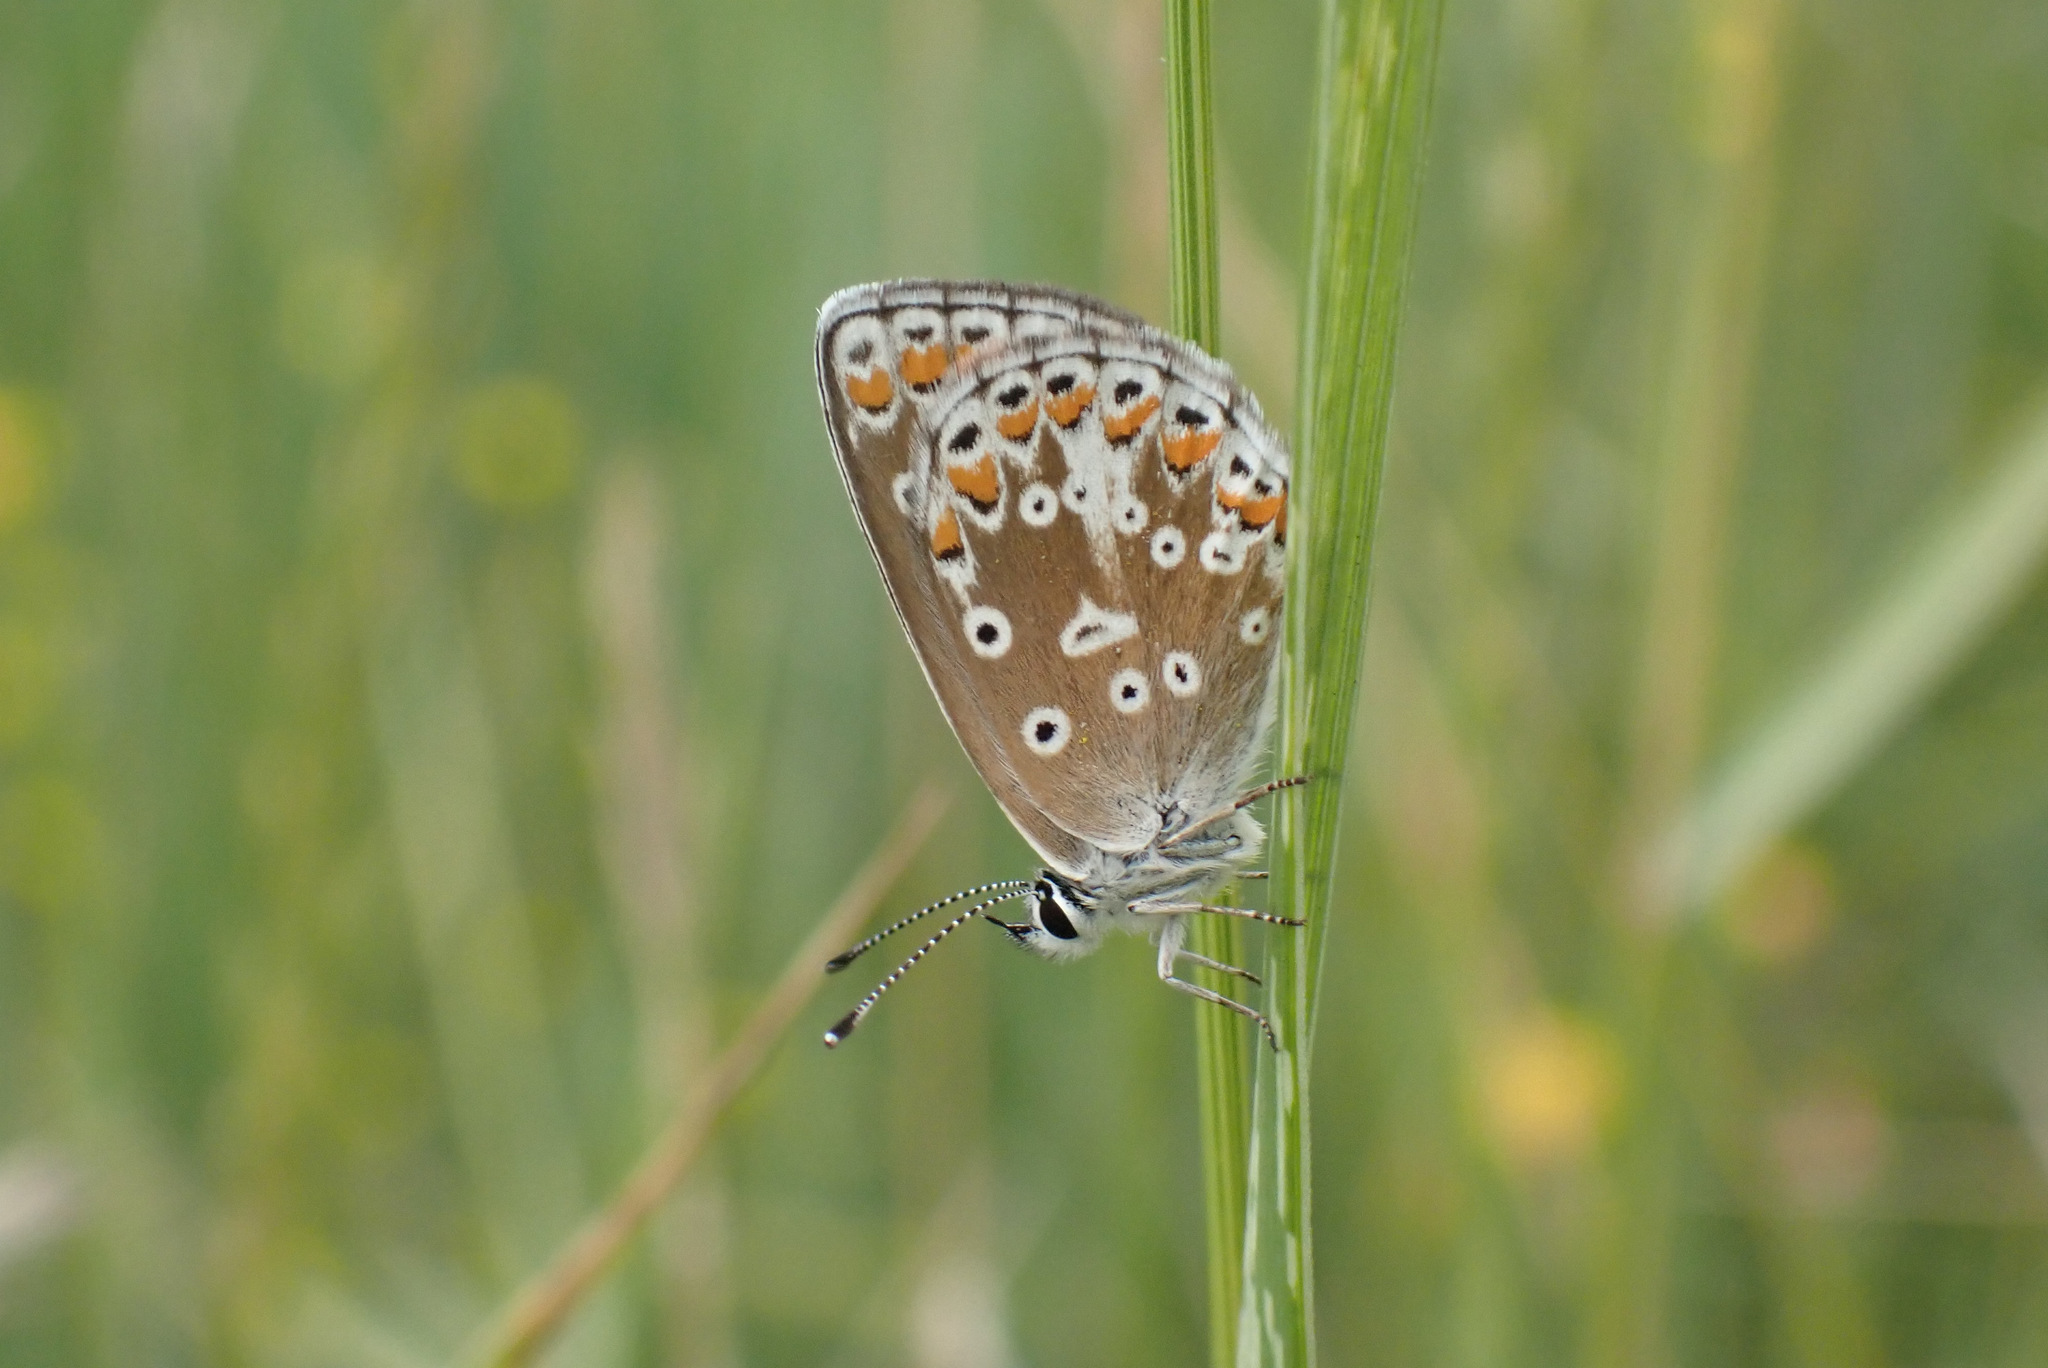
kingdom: Animalia
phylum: Arthropoda
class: Insecta
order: Lepidoptera
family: Lycaenidae
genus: Aricia
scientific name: Aricia agestis
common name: Brown argus
